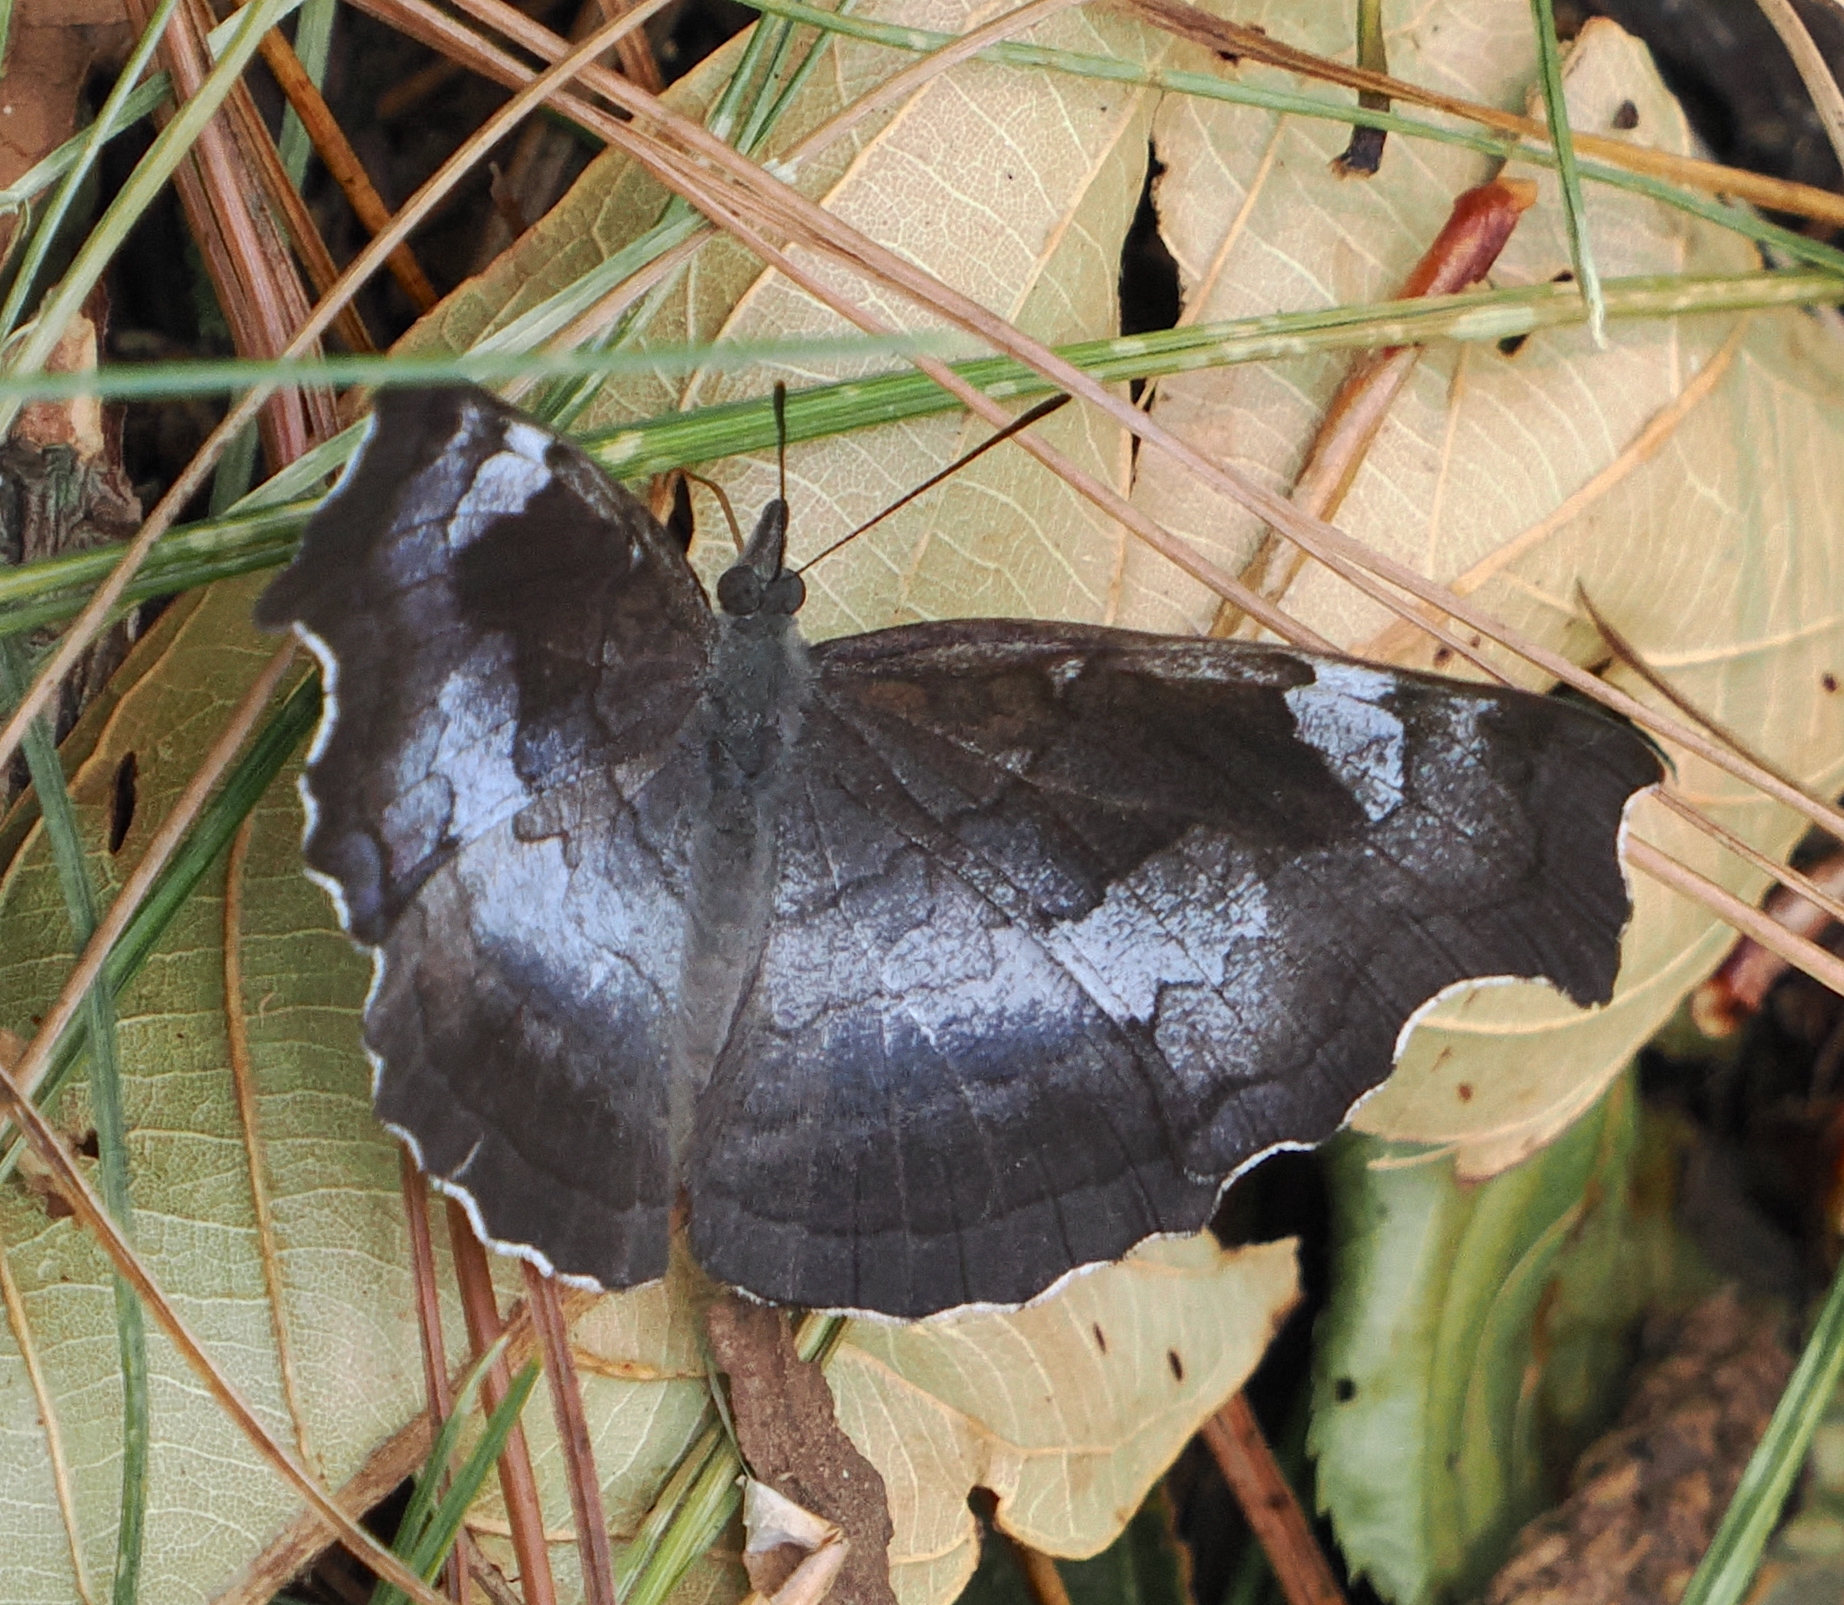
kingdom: Animalia
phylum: Arthropoda
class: Insecta
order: Lepidoptera
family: Nymphalidae
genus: Laringa
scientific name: Laringa horsfieldii
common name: Banded dandy
